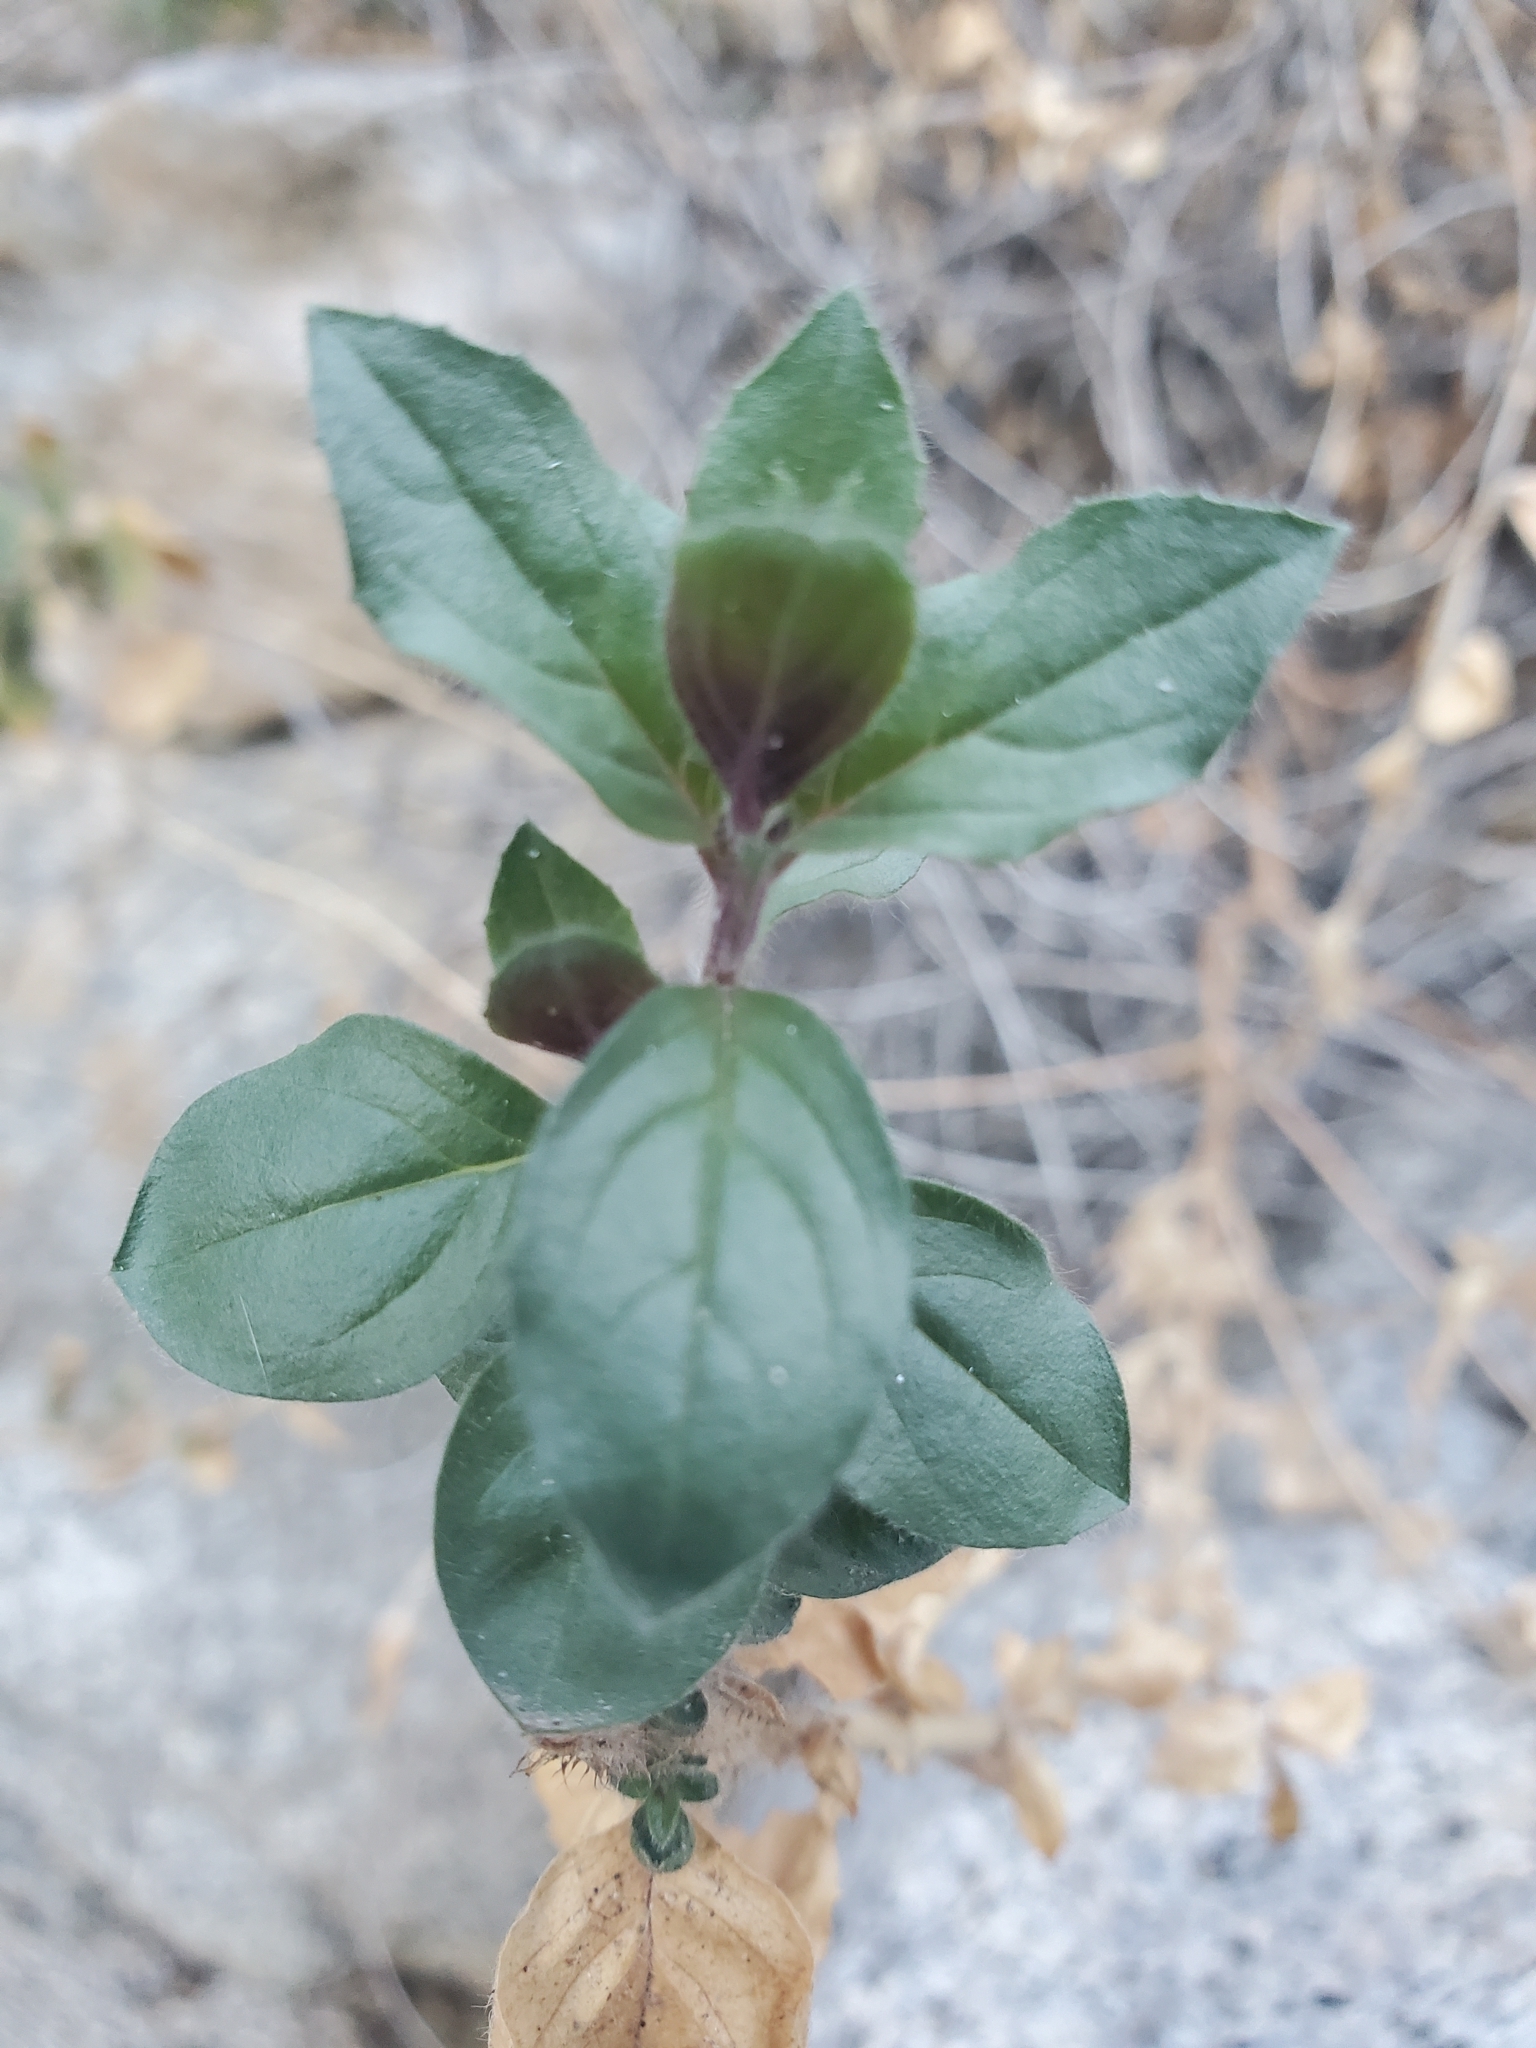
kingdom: Plantae
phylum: Tracheophyta
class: Magnoliopsida
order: Myrtales
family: Onagraceae
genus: Epilobium
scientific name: Epilobium canum
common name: California-fuchsia
